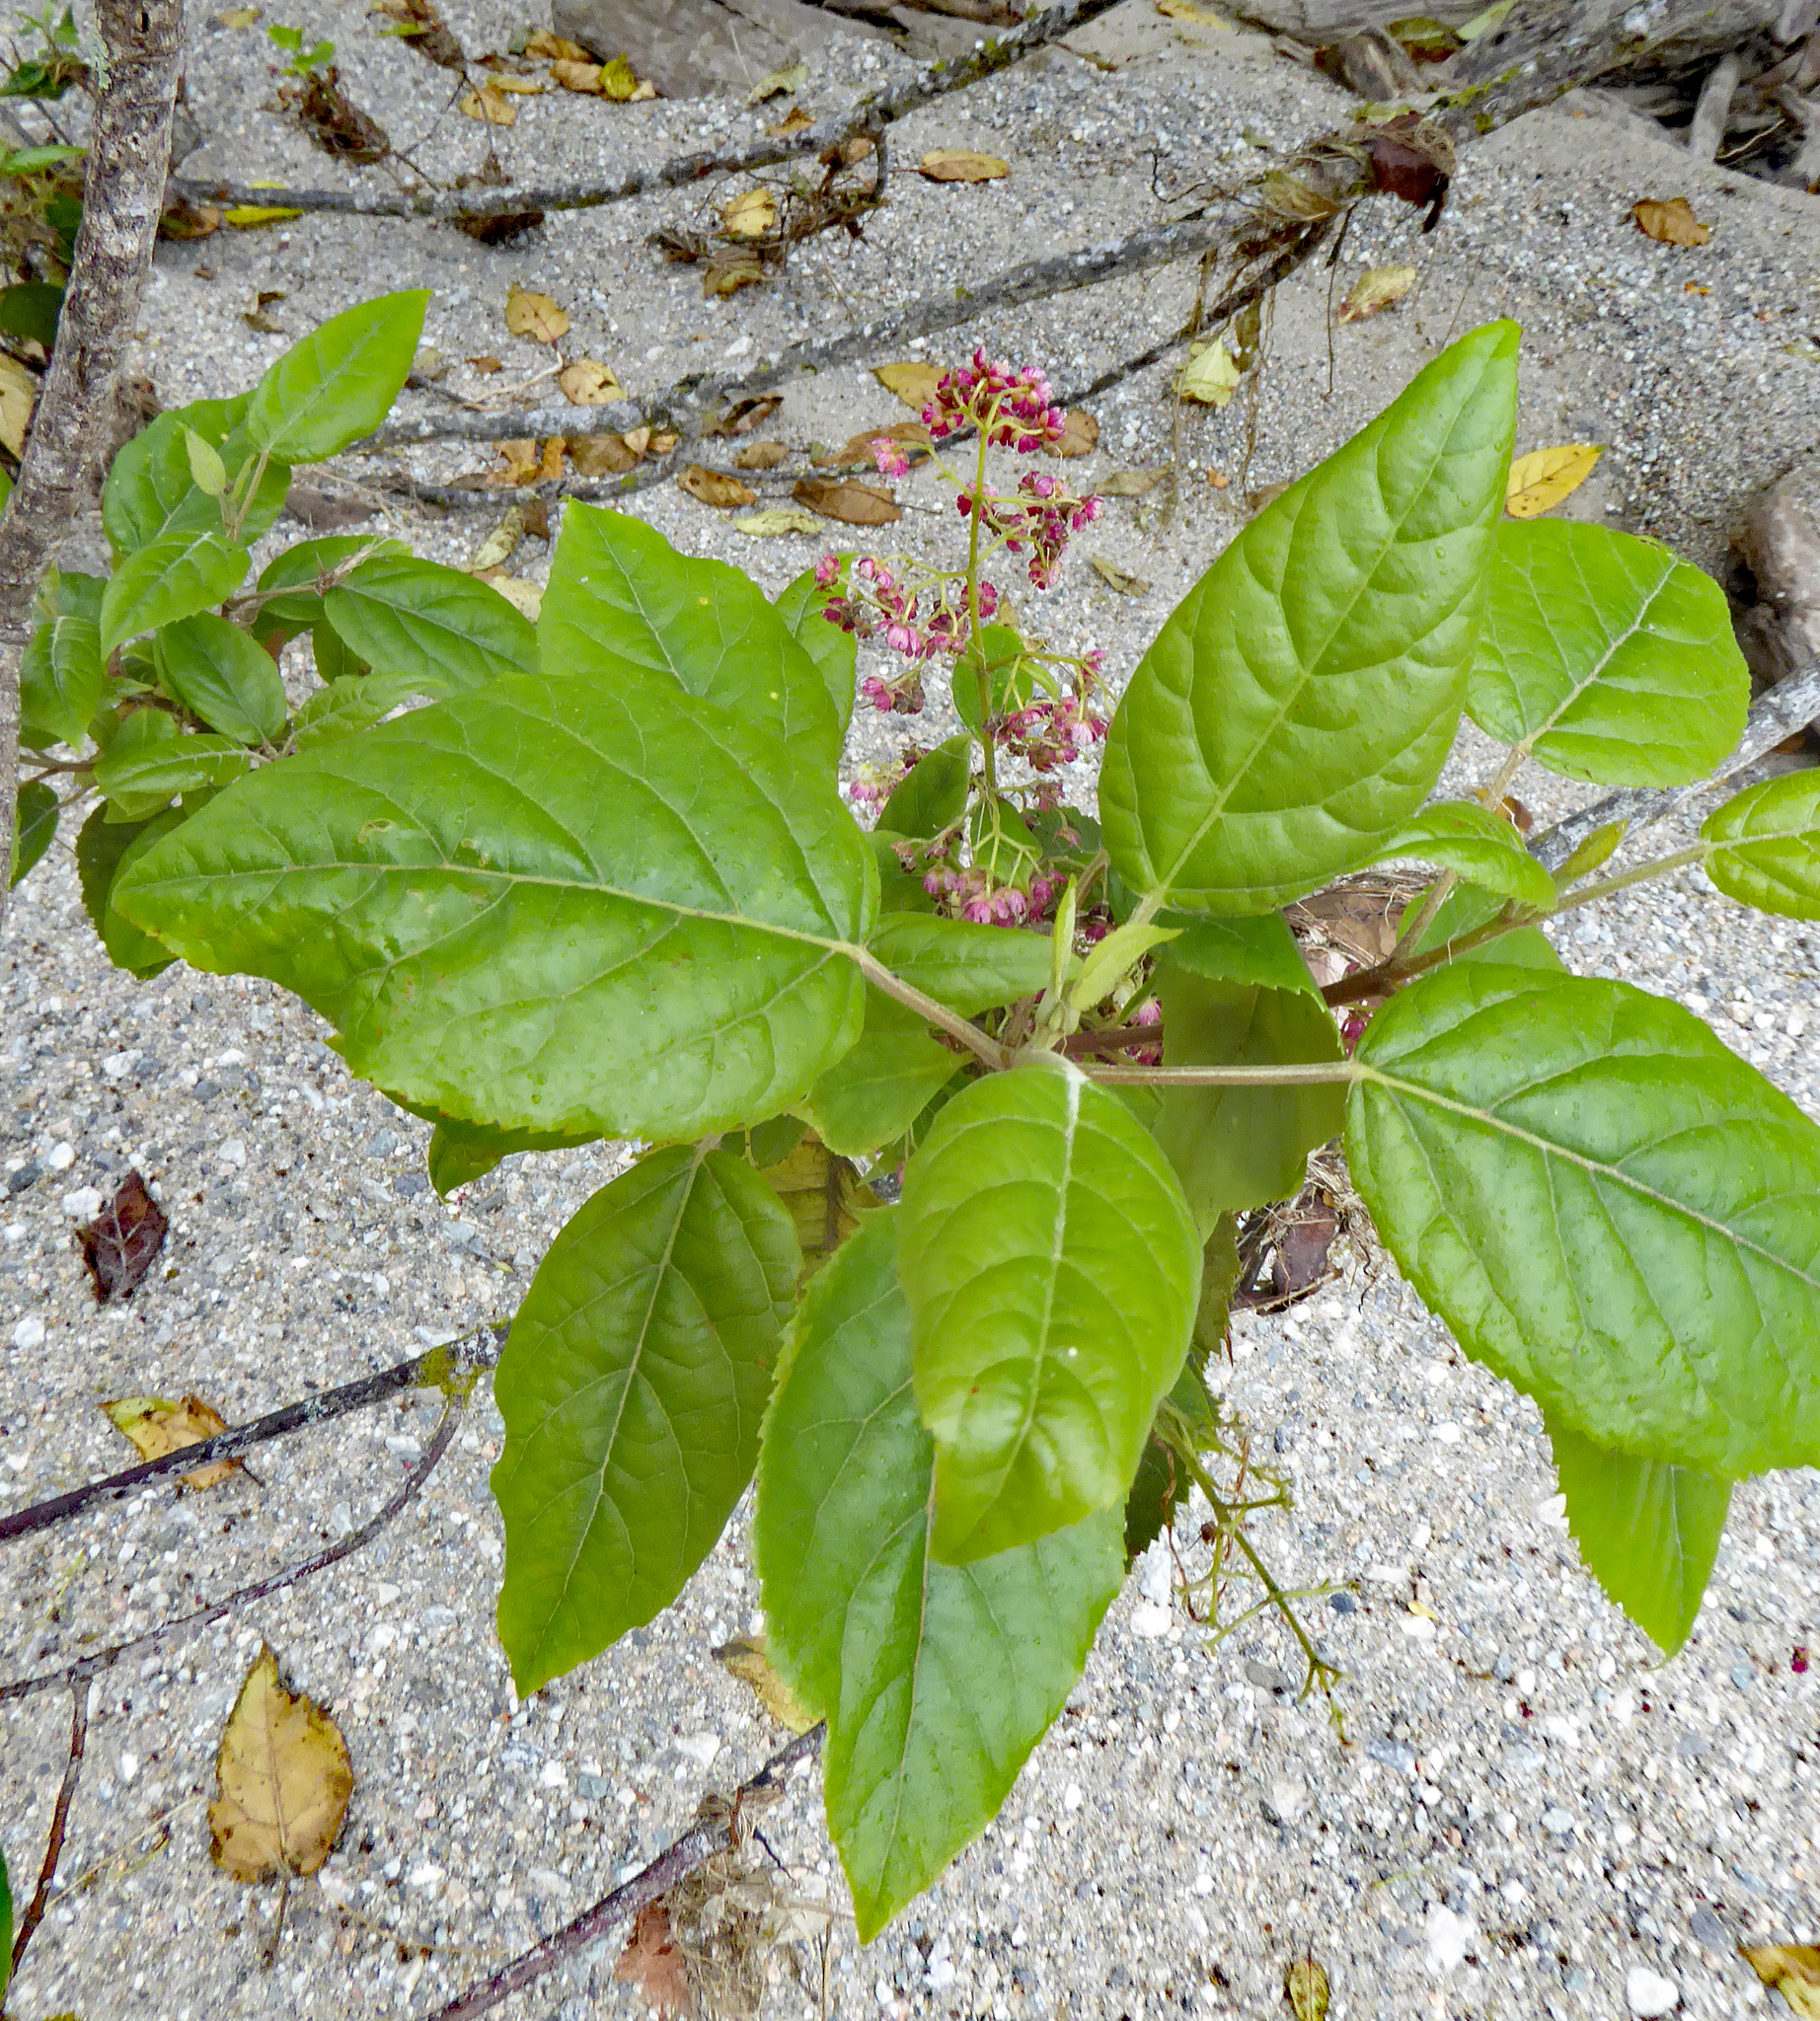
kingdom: Plantae
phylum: Tracheophyta
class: Magnoliopsida
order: Oxalidales
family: Elaeocarpaceae
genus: Aristotelia
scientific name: Aristotelia serrata
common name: New zealand wineberry
